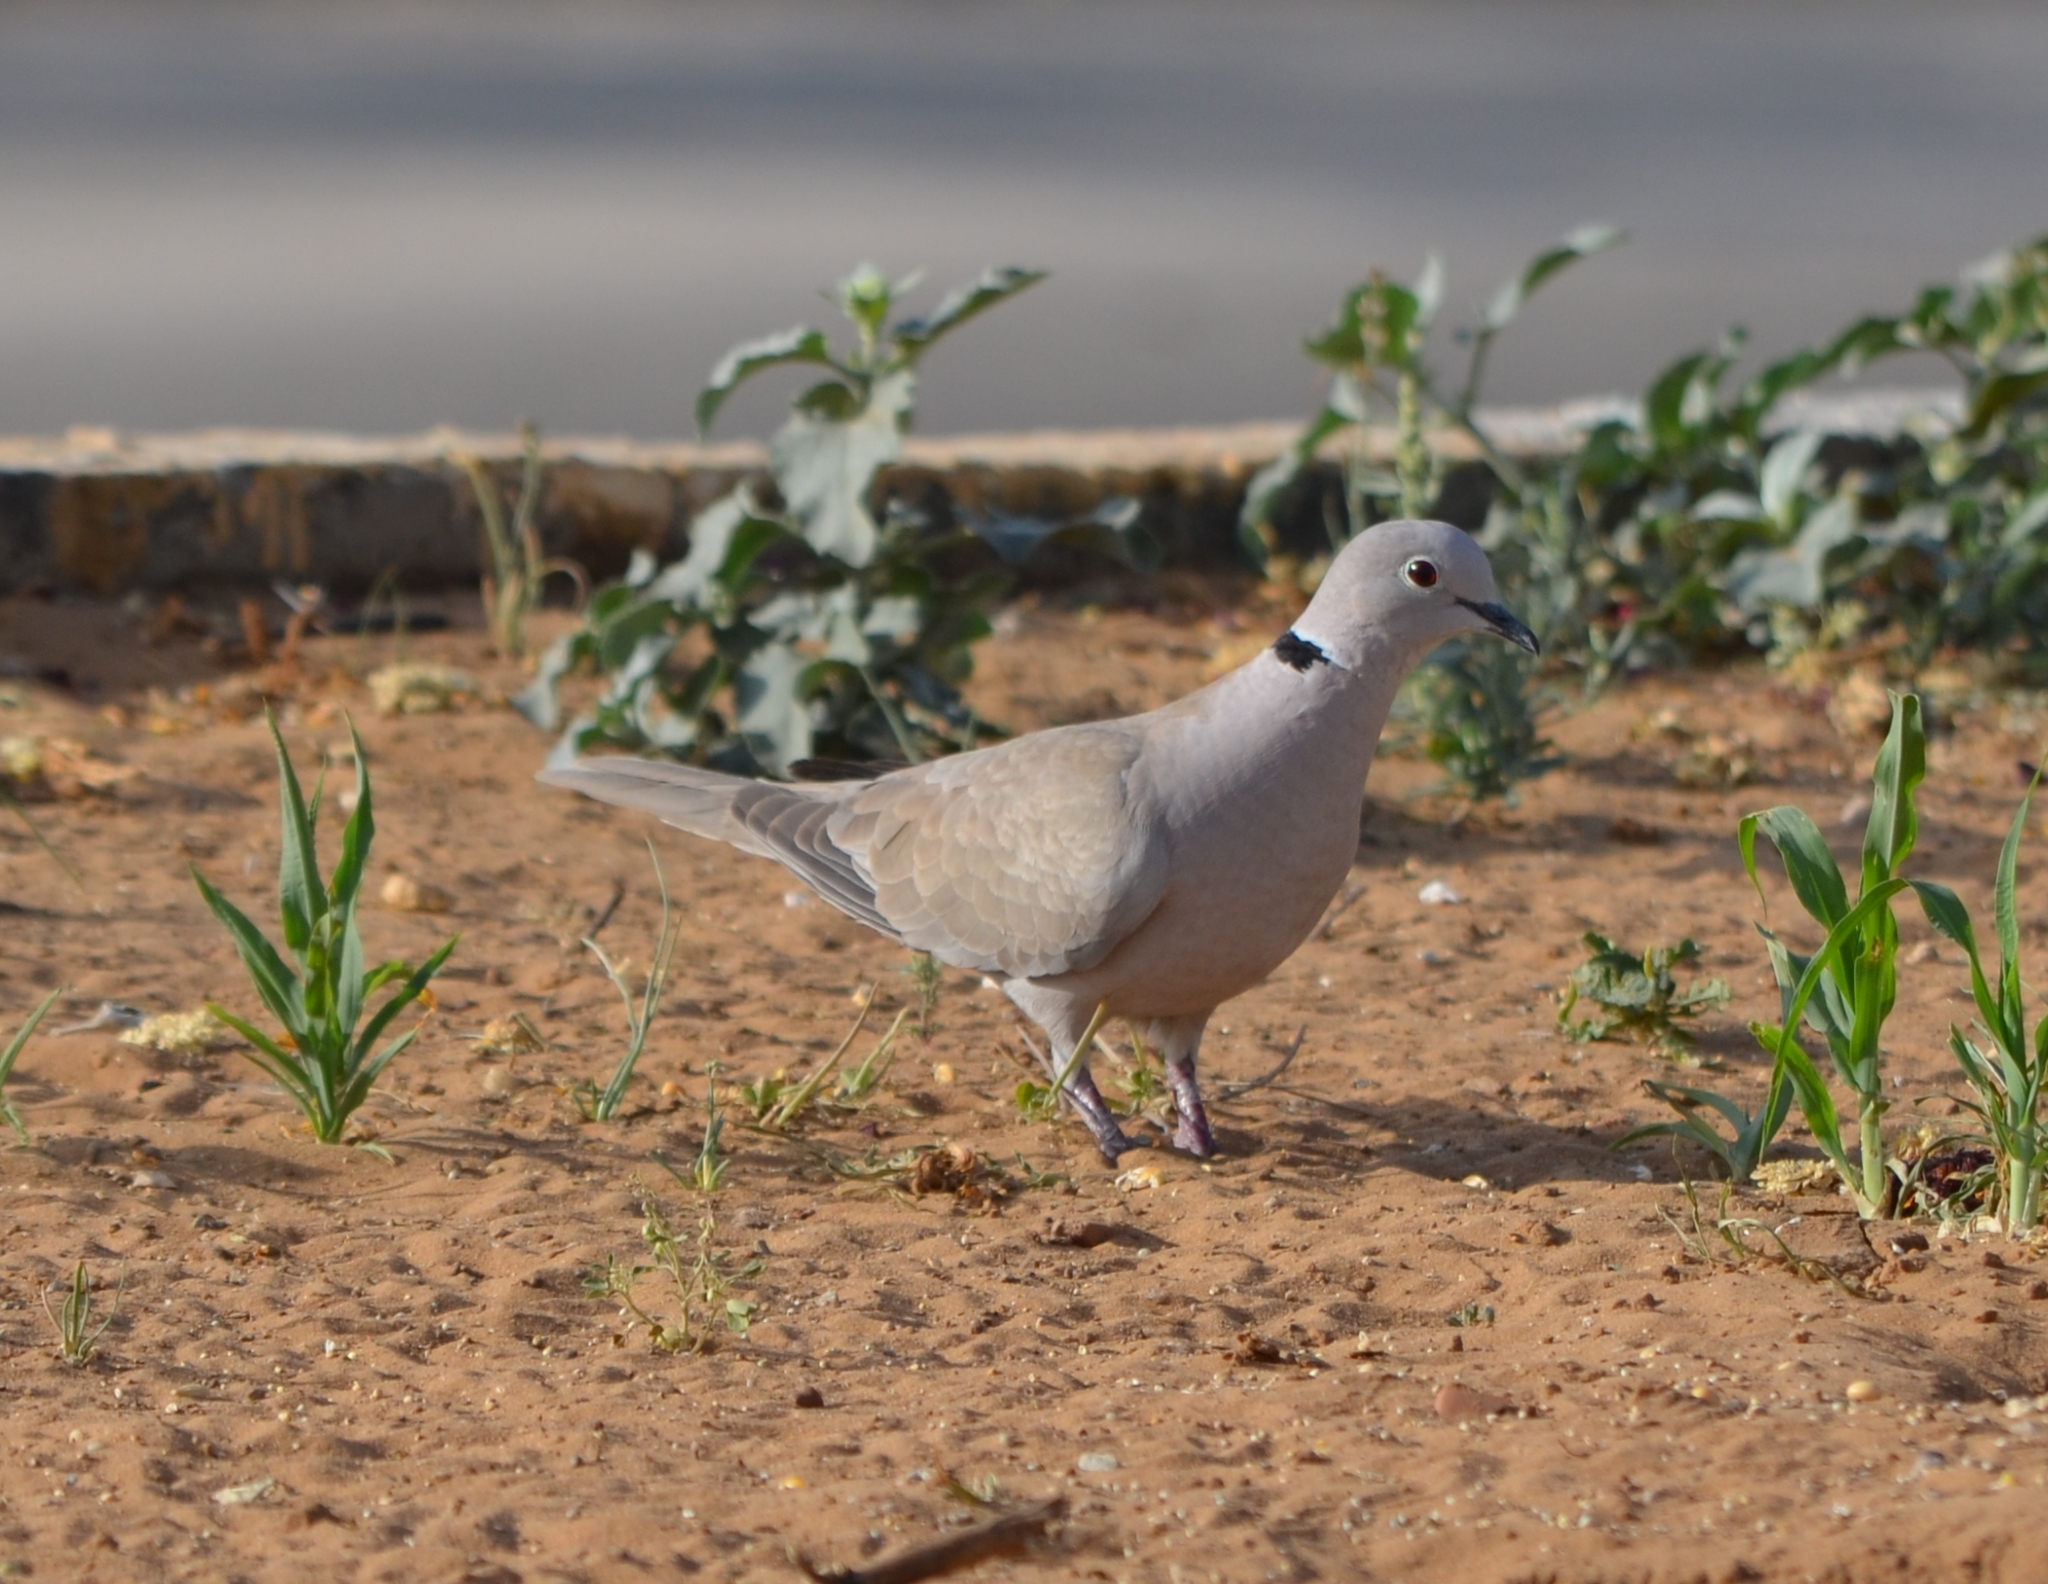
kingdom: Animalia
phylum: Chordata
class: Aves
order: Columbiformes
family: Columbidae
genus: Streptopelia
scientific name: Streptopelia decaocto
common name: Eurasian collared dove
